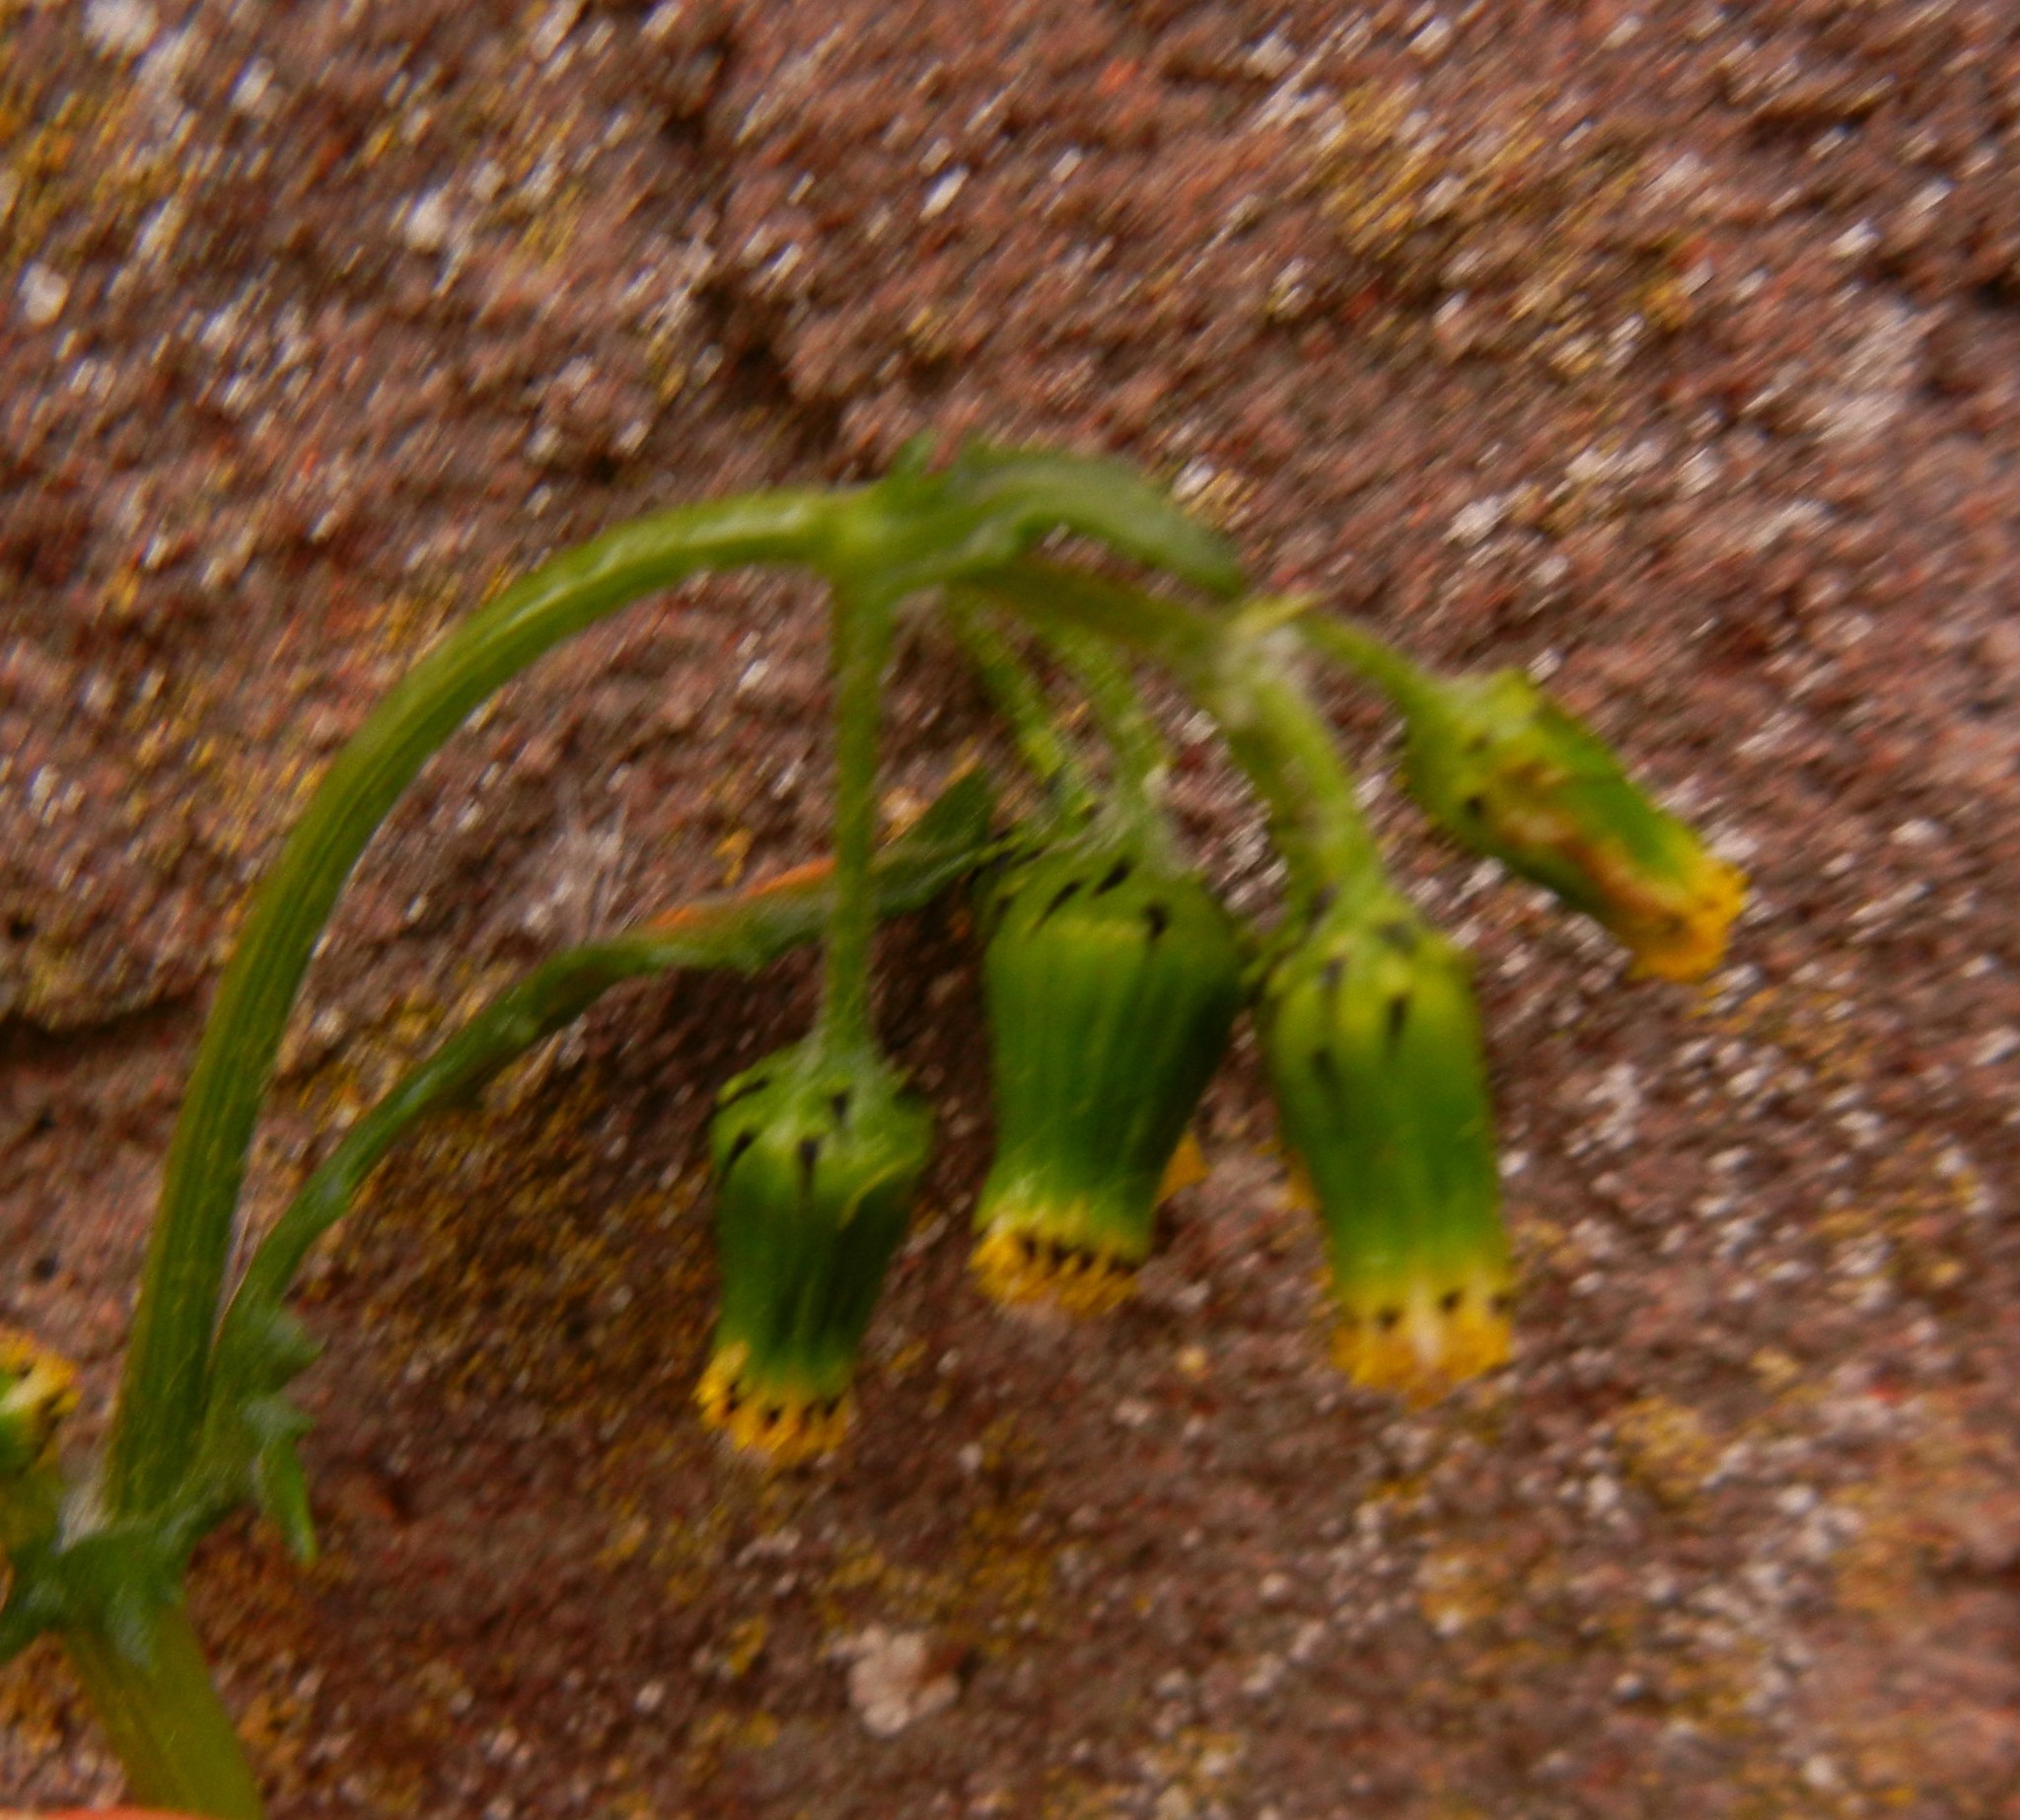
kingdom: Plantae
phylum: Tracheophyta
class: Magnoliopsida
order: Asterales
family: Asteraceae
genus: Senecio
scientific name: Senecio vulgaris
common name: Old-man-in-the-spring
